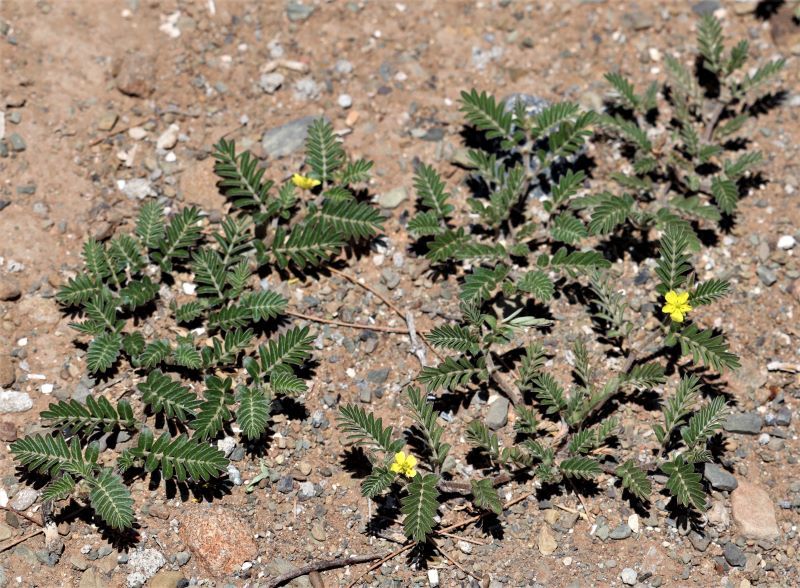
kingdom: Plantae
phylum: Tracheophyta
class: Magnoliopsida
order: Zygophyllales
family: Zygophyllaceae
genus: Tribulus
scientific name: Tribulus terrestris
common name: Puncturevine
